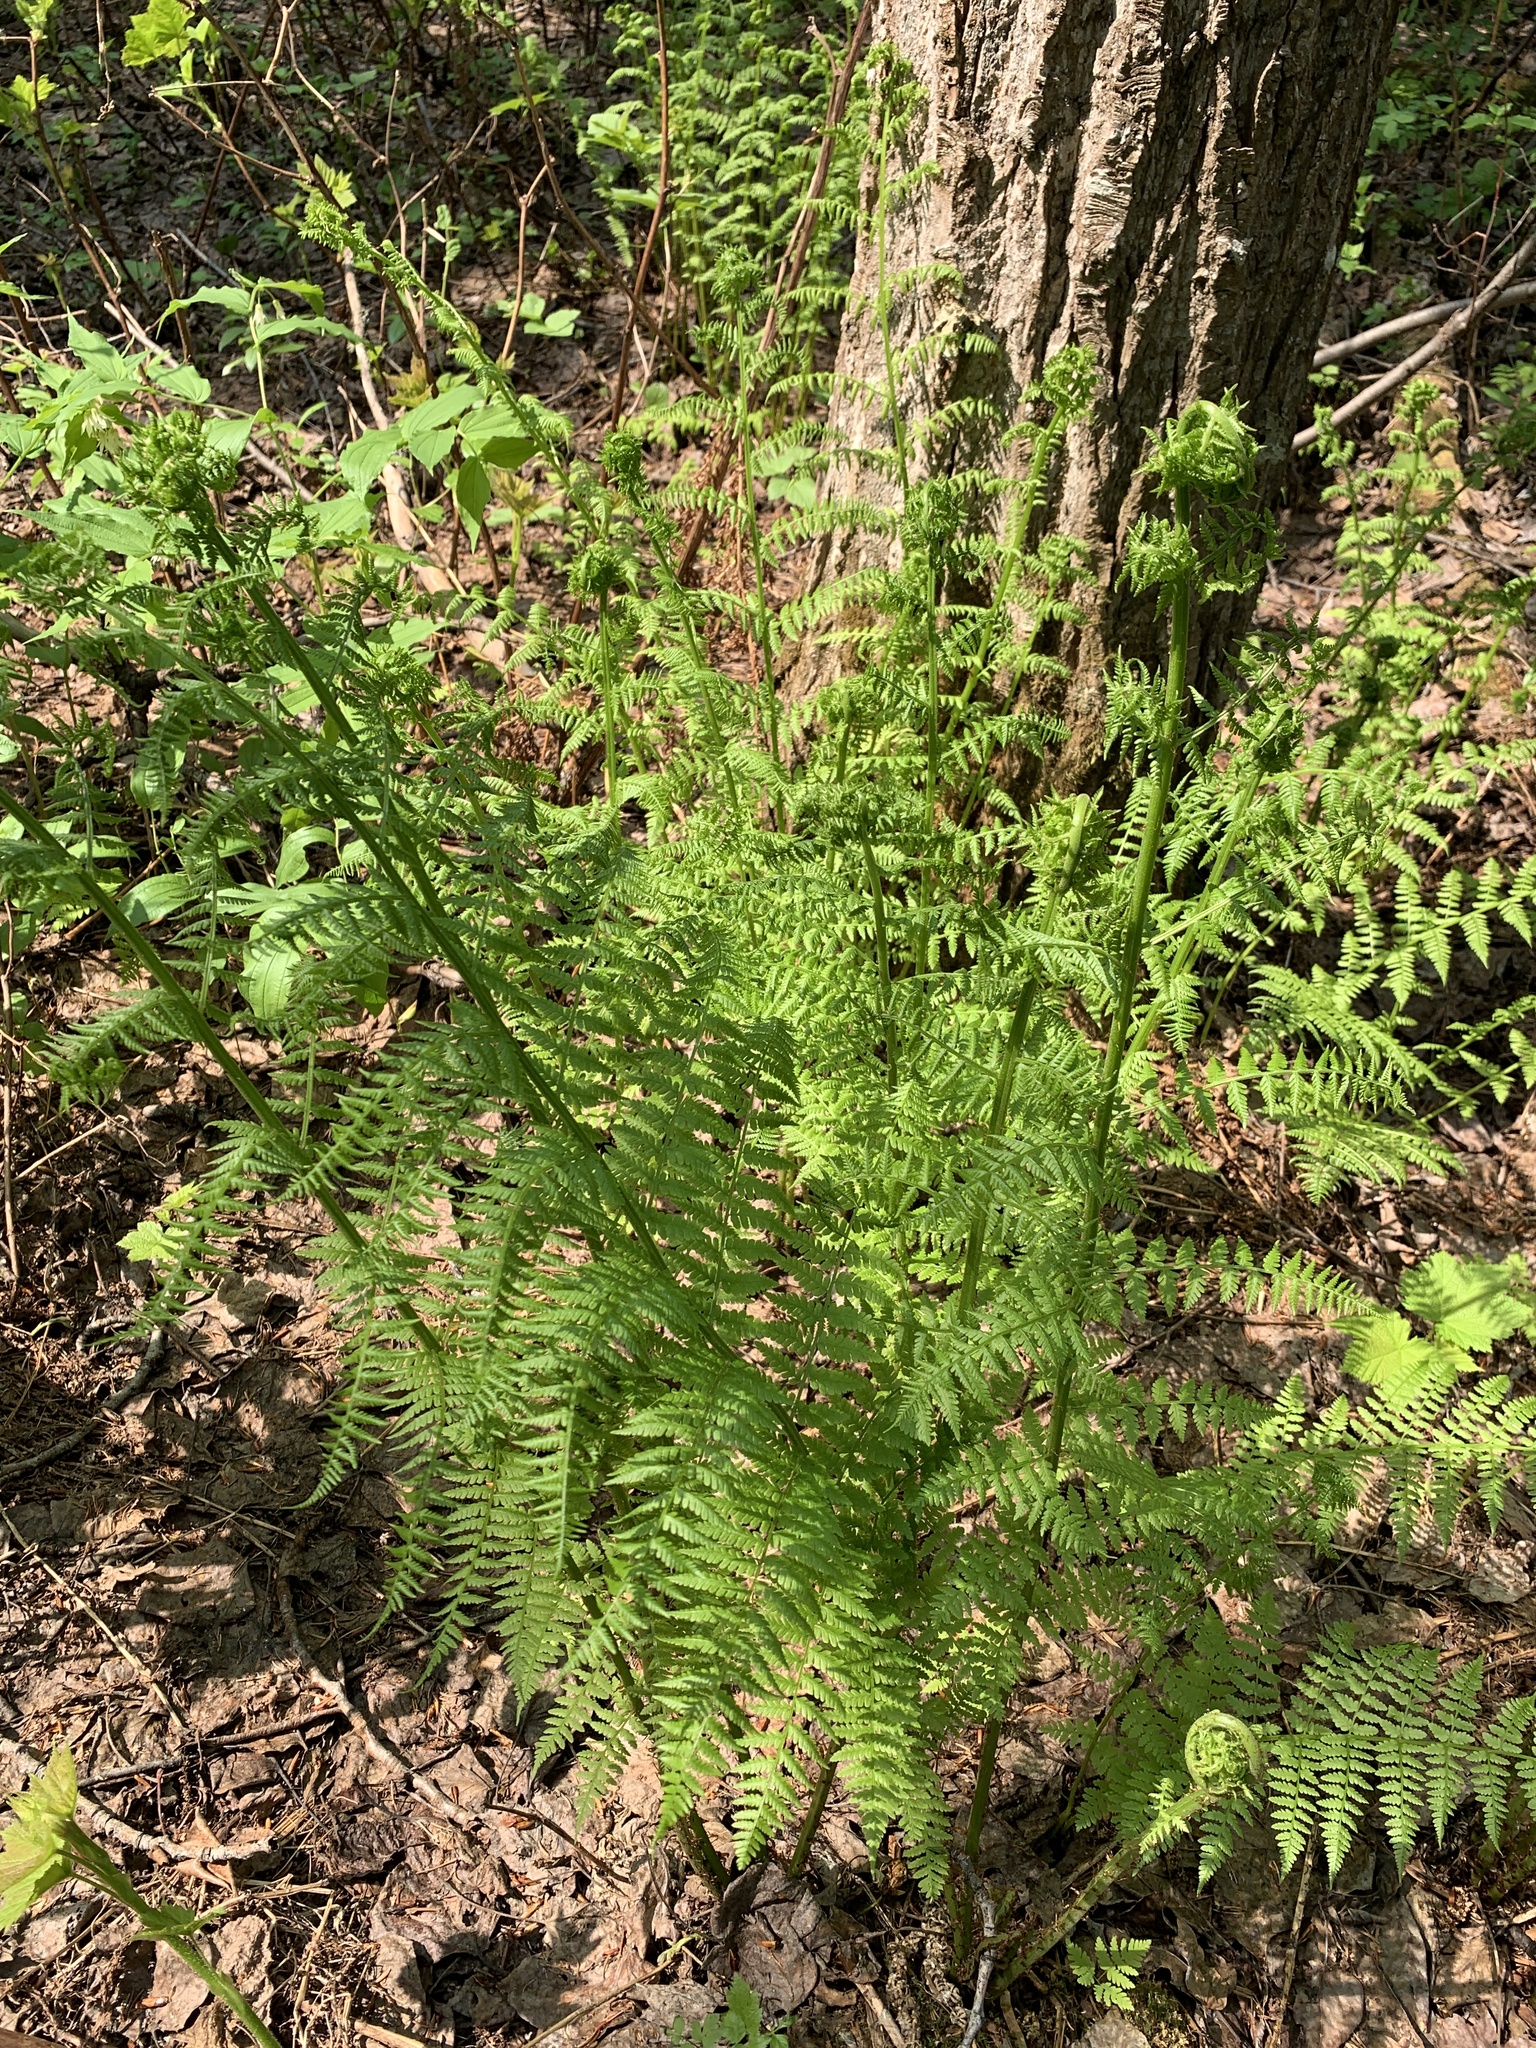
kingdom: Plantae
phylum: Tracheophyta
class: Polypodiopsida
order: Polypodiales
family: Athyriaceae
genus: Athyrium
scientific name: Athyrium filix-femina
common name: Lady fern
